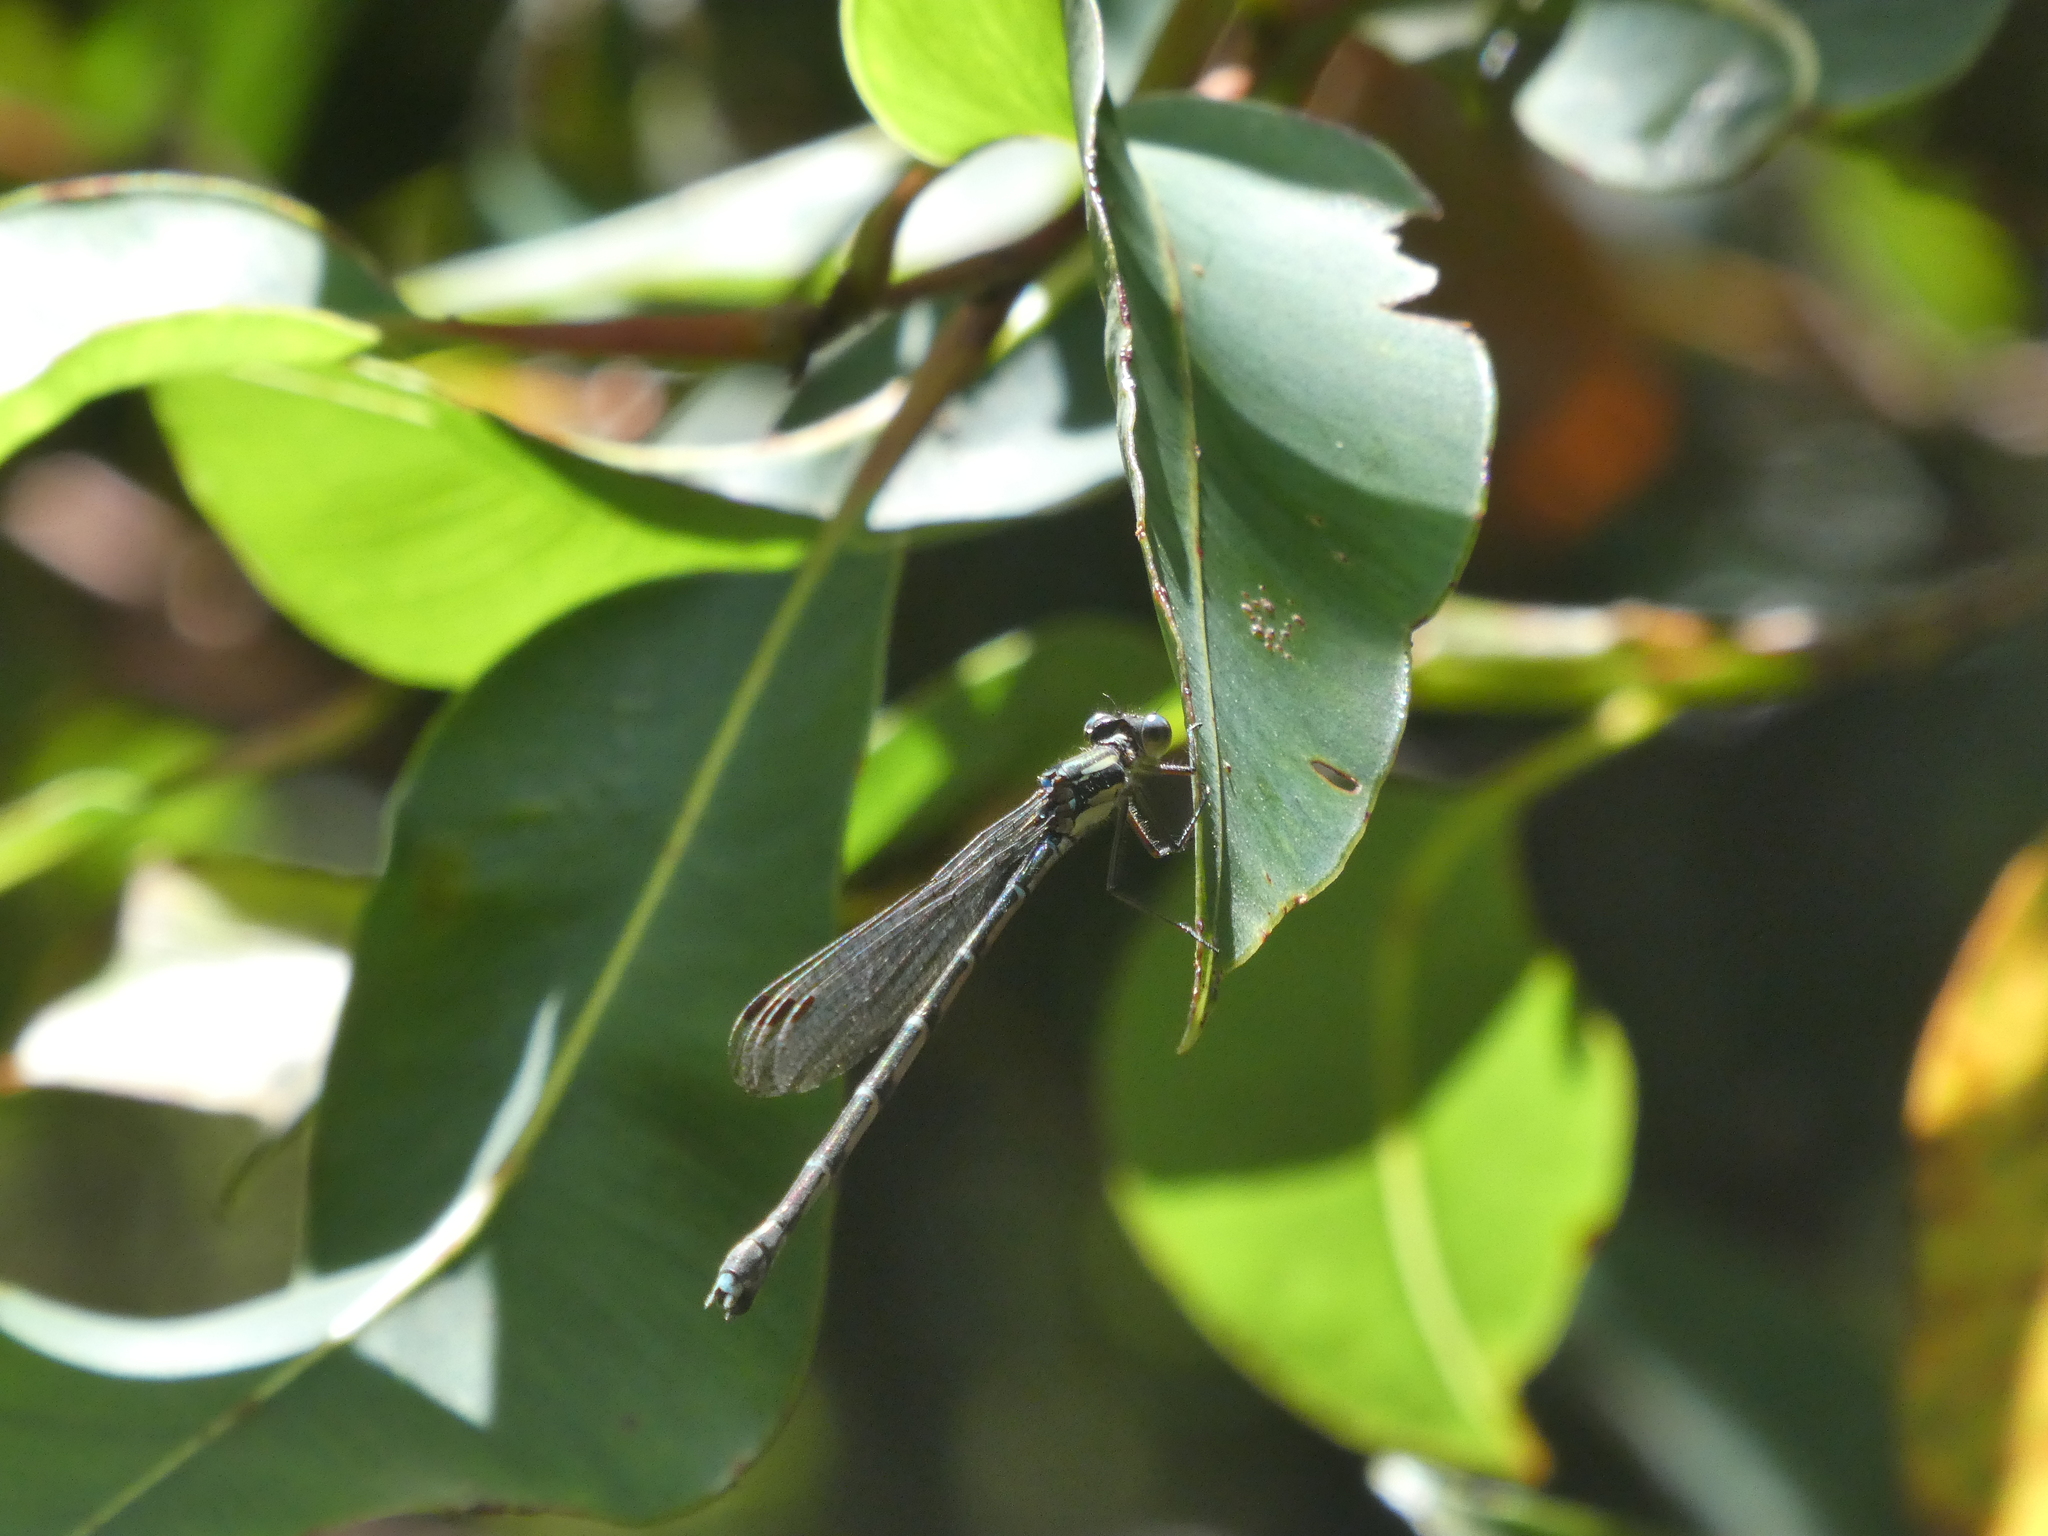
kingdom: Animalia
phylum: Arthropoda
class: Insecta
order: Odonata
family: Lestidae
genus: Austrolestes
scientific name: Austrolestes colensonis
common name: Blue damselfly
